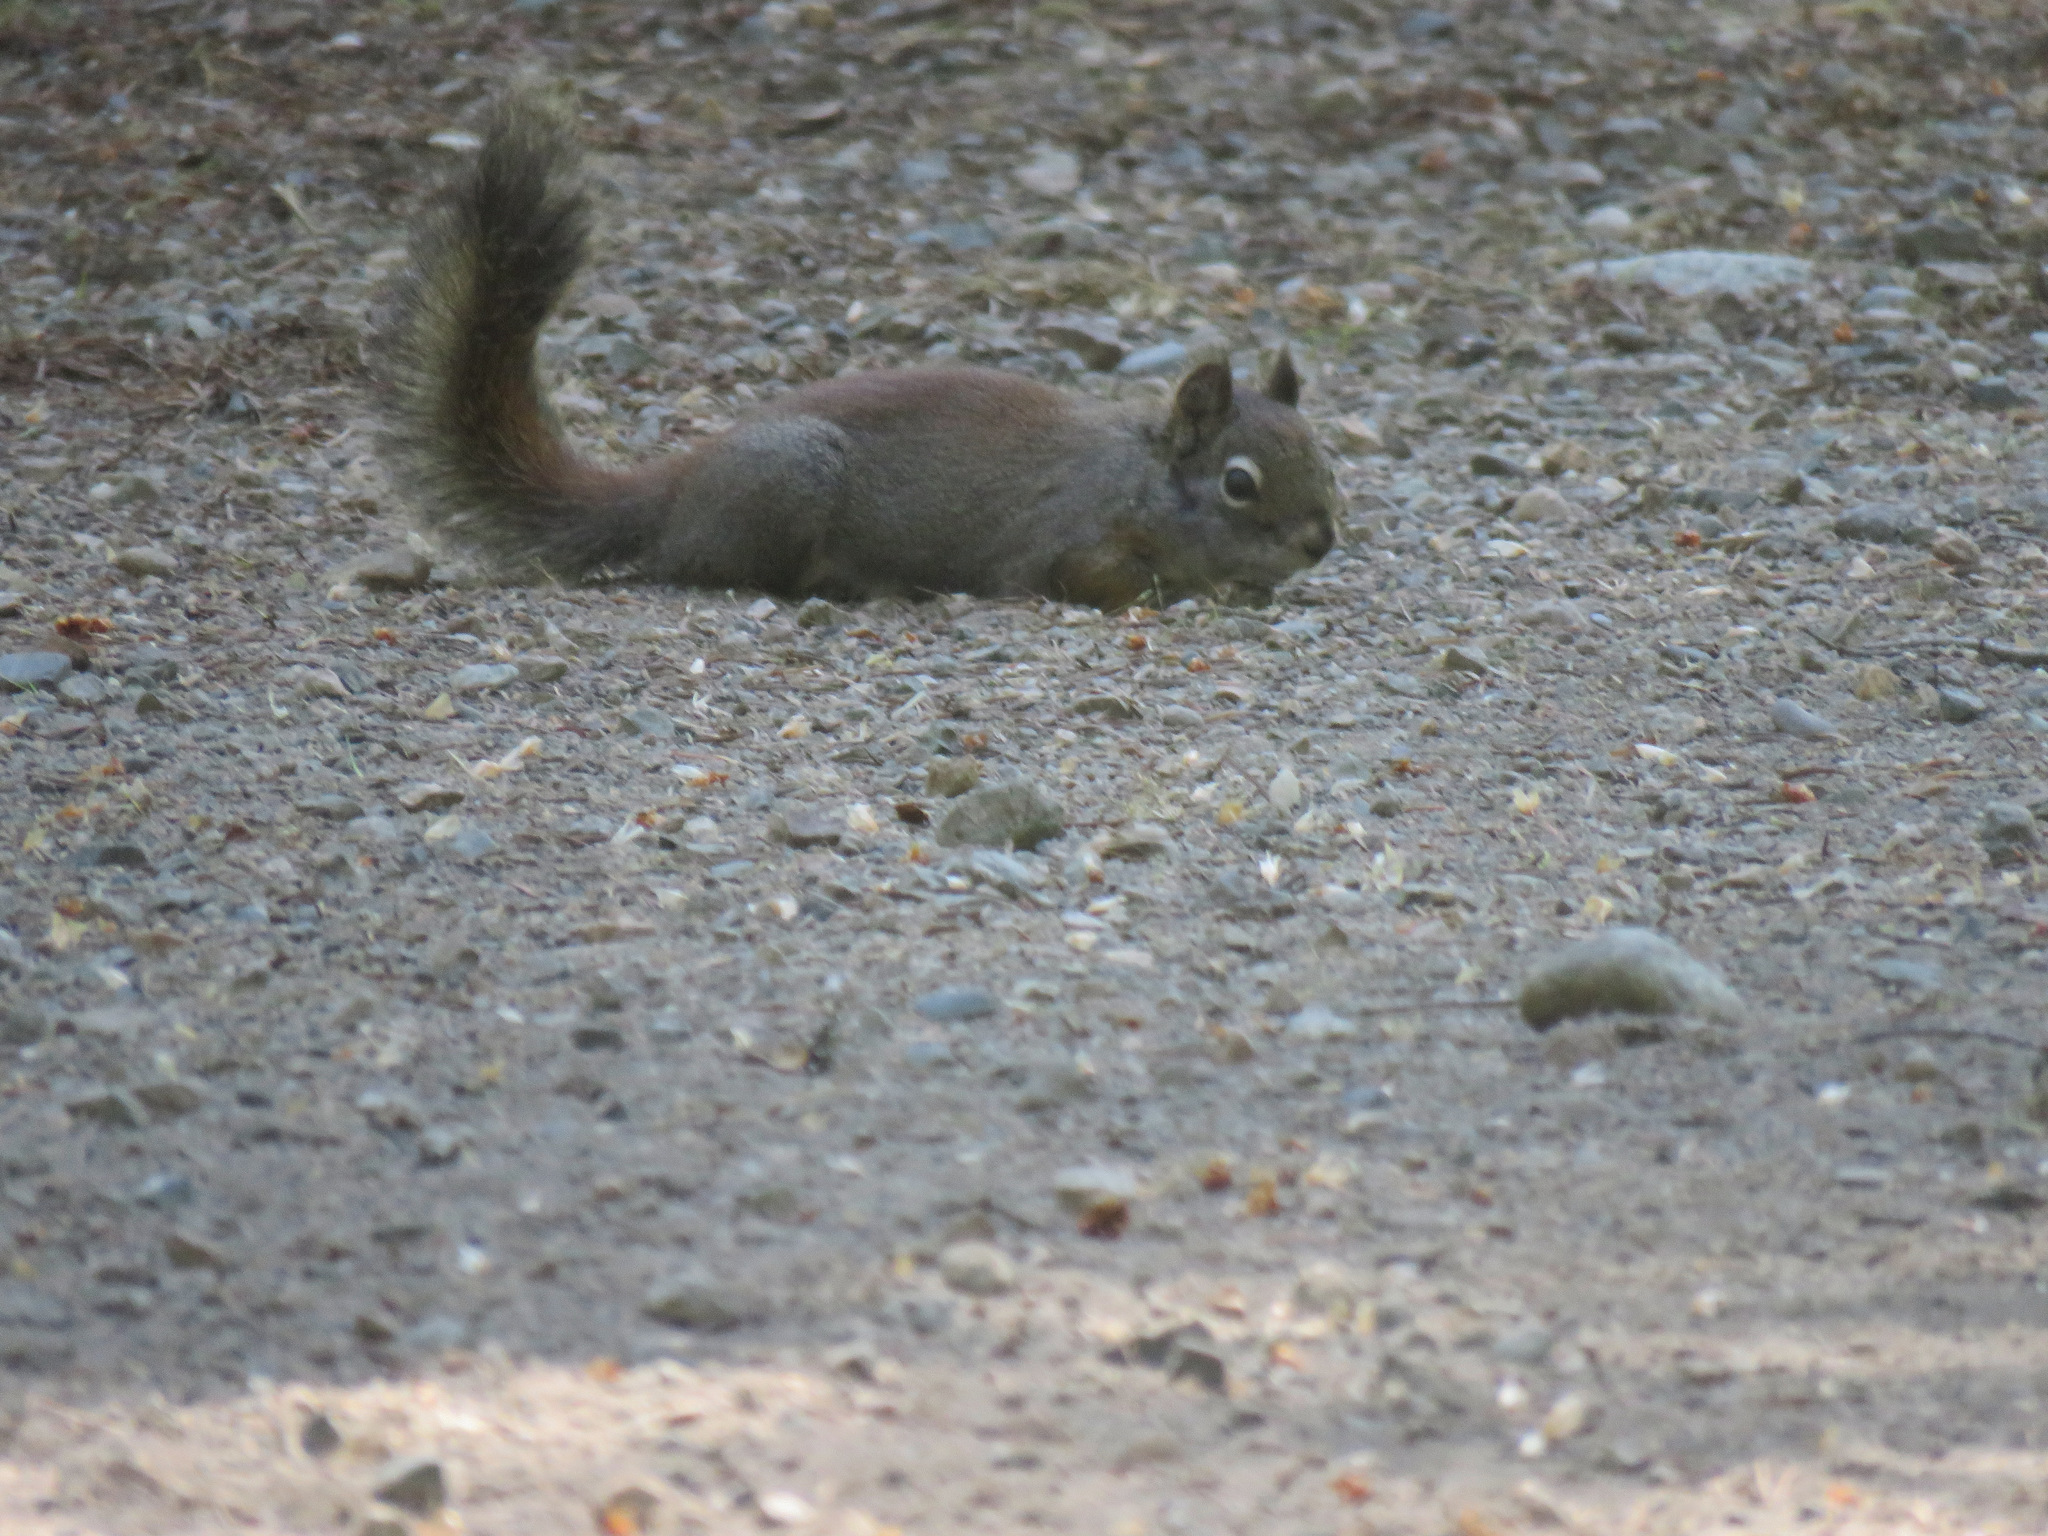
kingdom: Animalia
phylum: Chordata
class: Mammalia
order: Rodentia
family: Sciuridae
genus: Tamiasciurus
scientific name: Tamiasciurus hudsonicus
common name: Red squirrel
